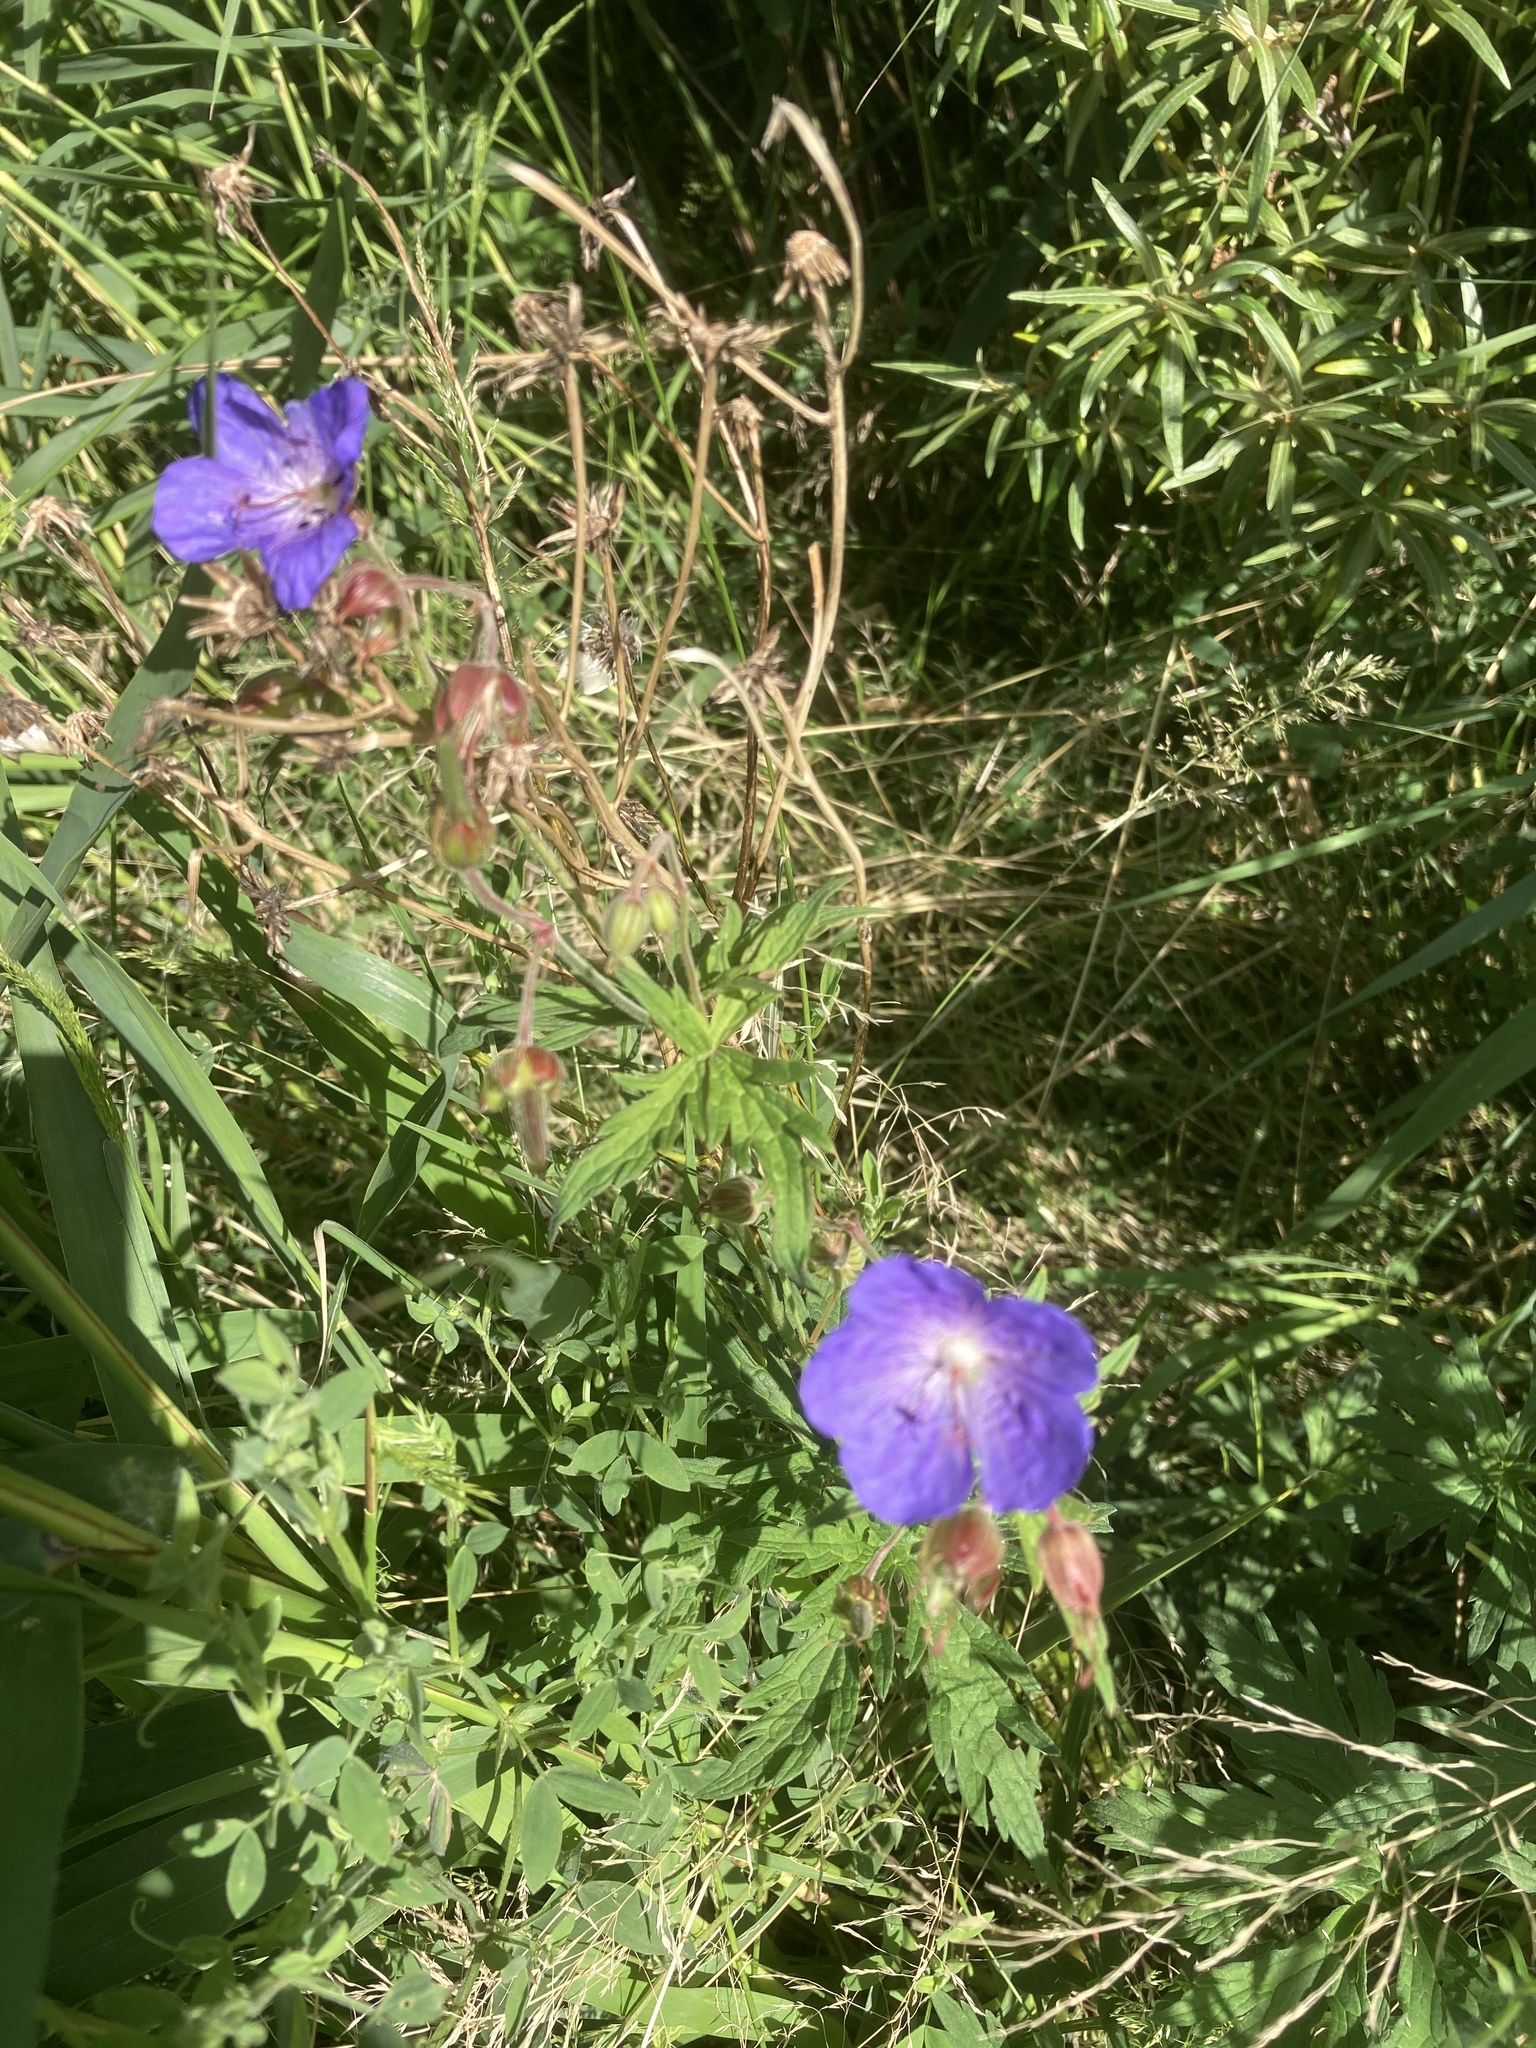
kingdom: Plantae
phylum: Tracheophyta
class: Magnoliopsida
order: Geraniales
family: Geraniaceae
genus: Geranium
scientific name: Geranium pratense
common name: Meadow crane's-bill
